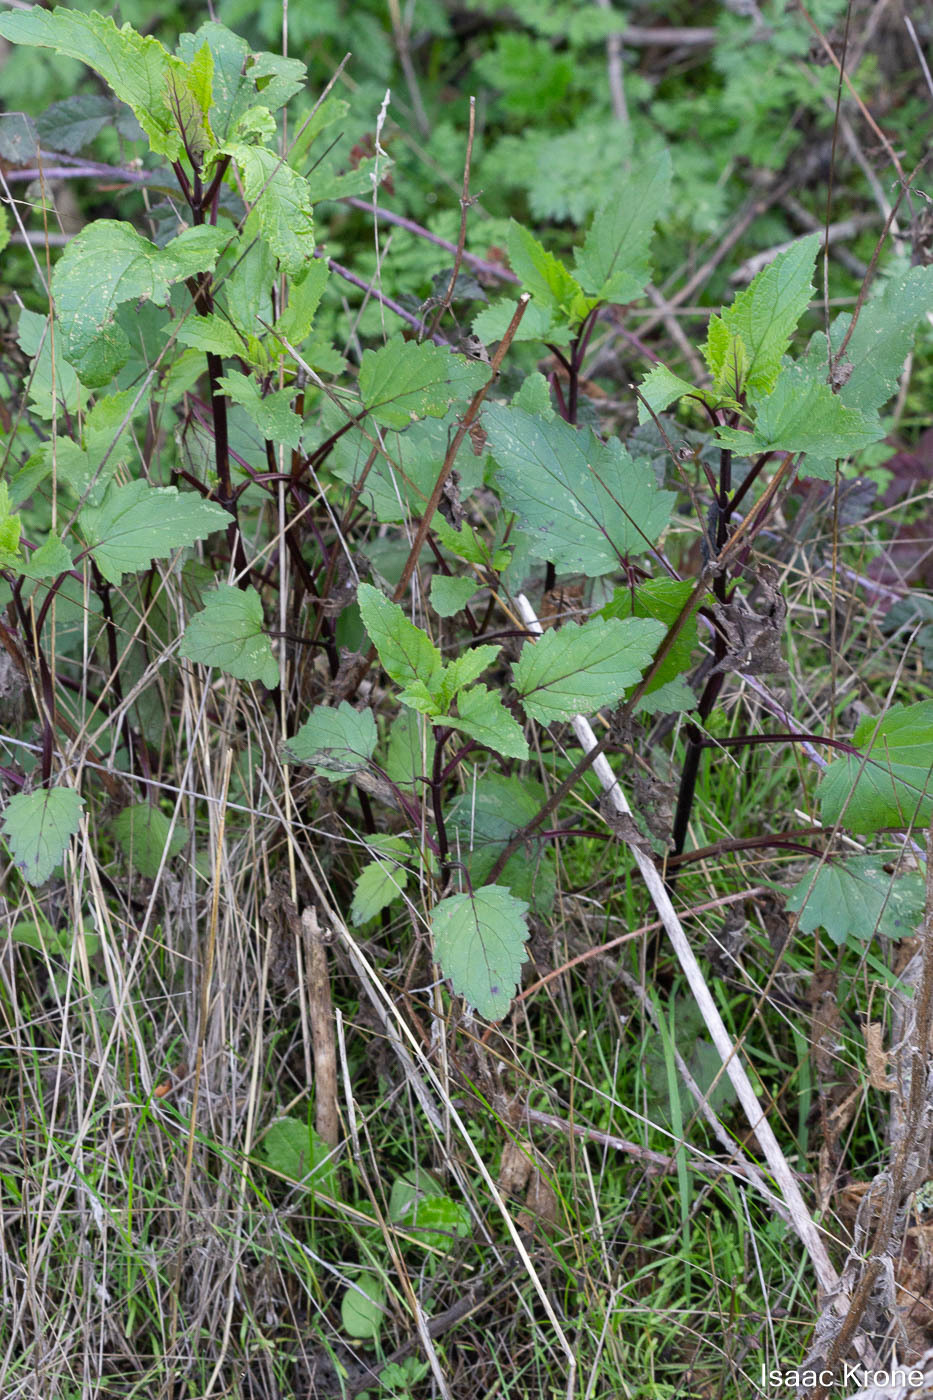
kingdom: Plantae
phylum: Tracheophyta
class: Magnoliopsida
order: Lamiales
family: Scrophulariaceae
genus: Scrophularia
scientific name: Scrophularia californica
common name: California figwort
